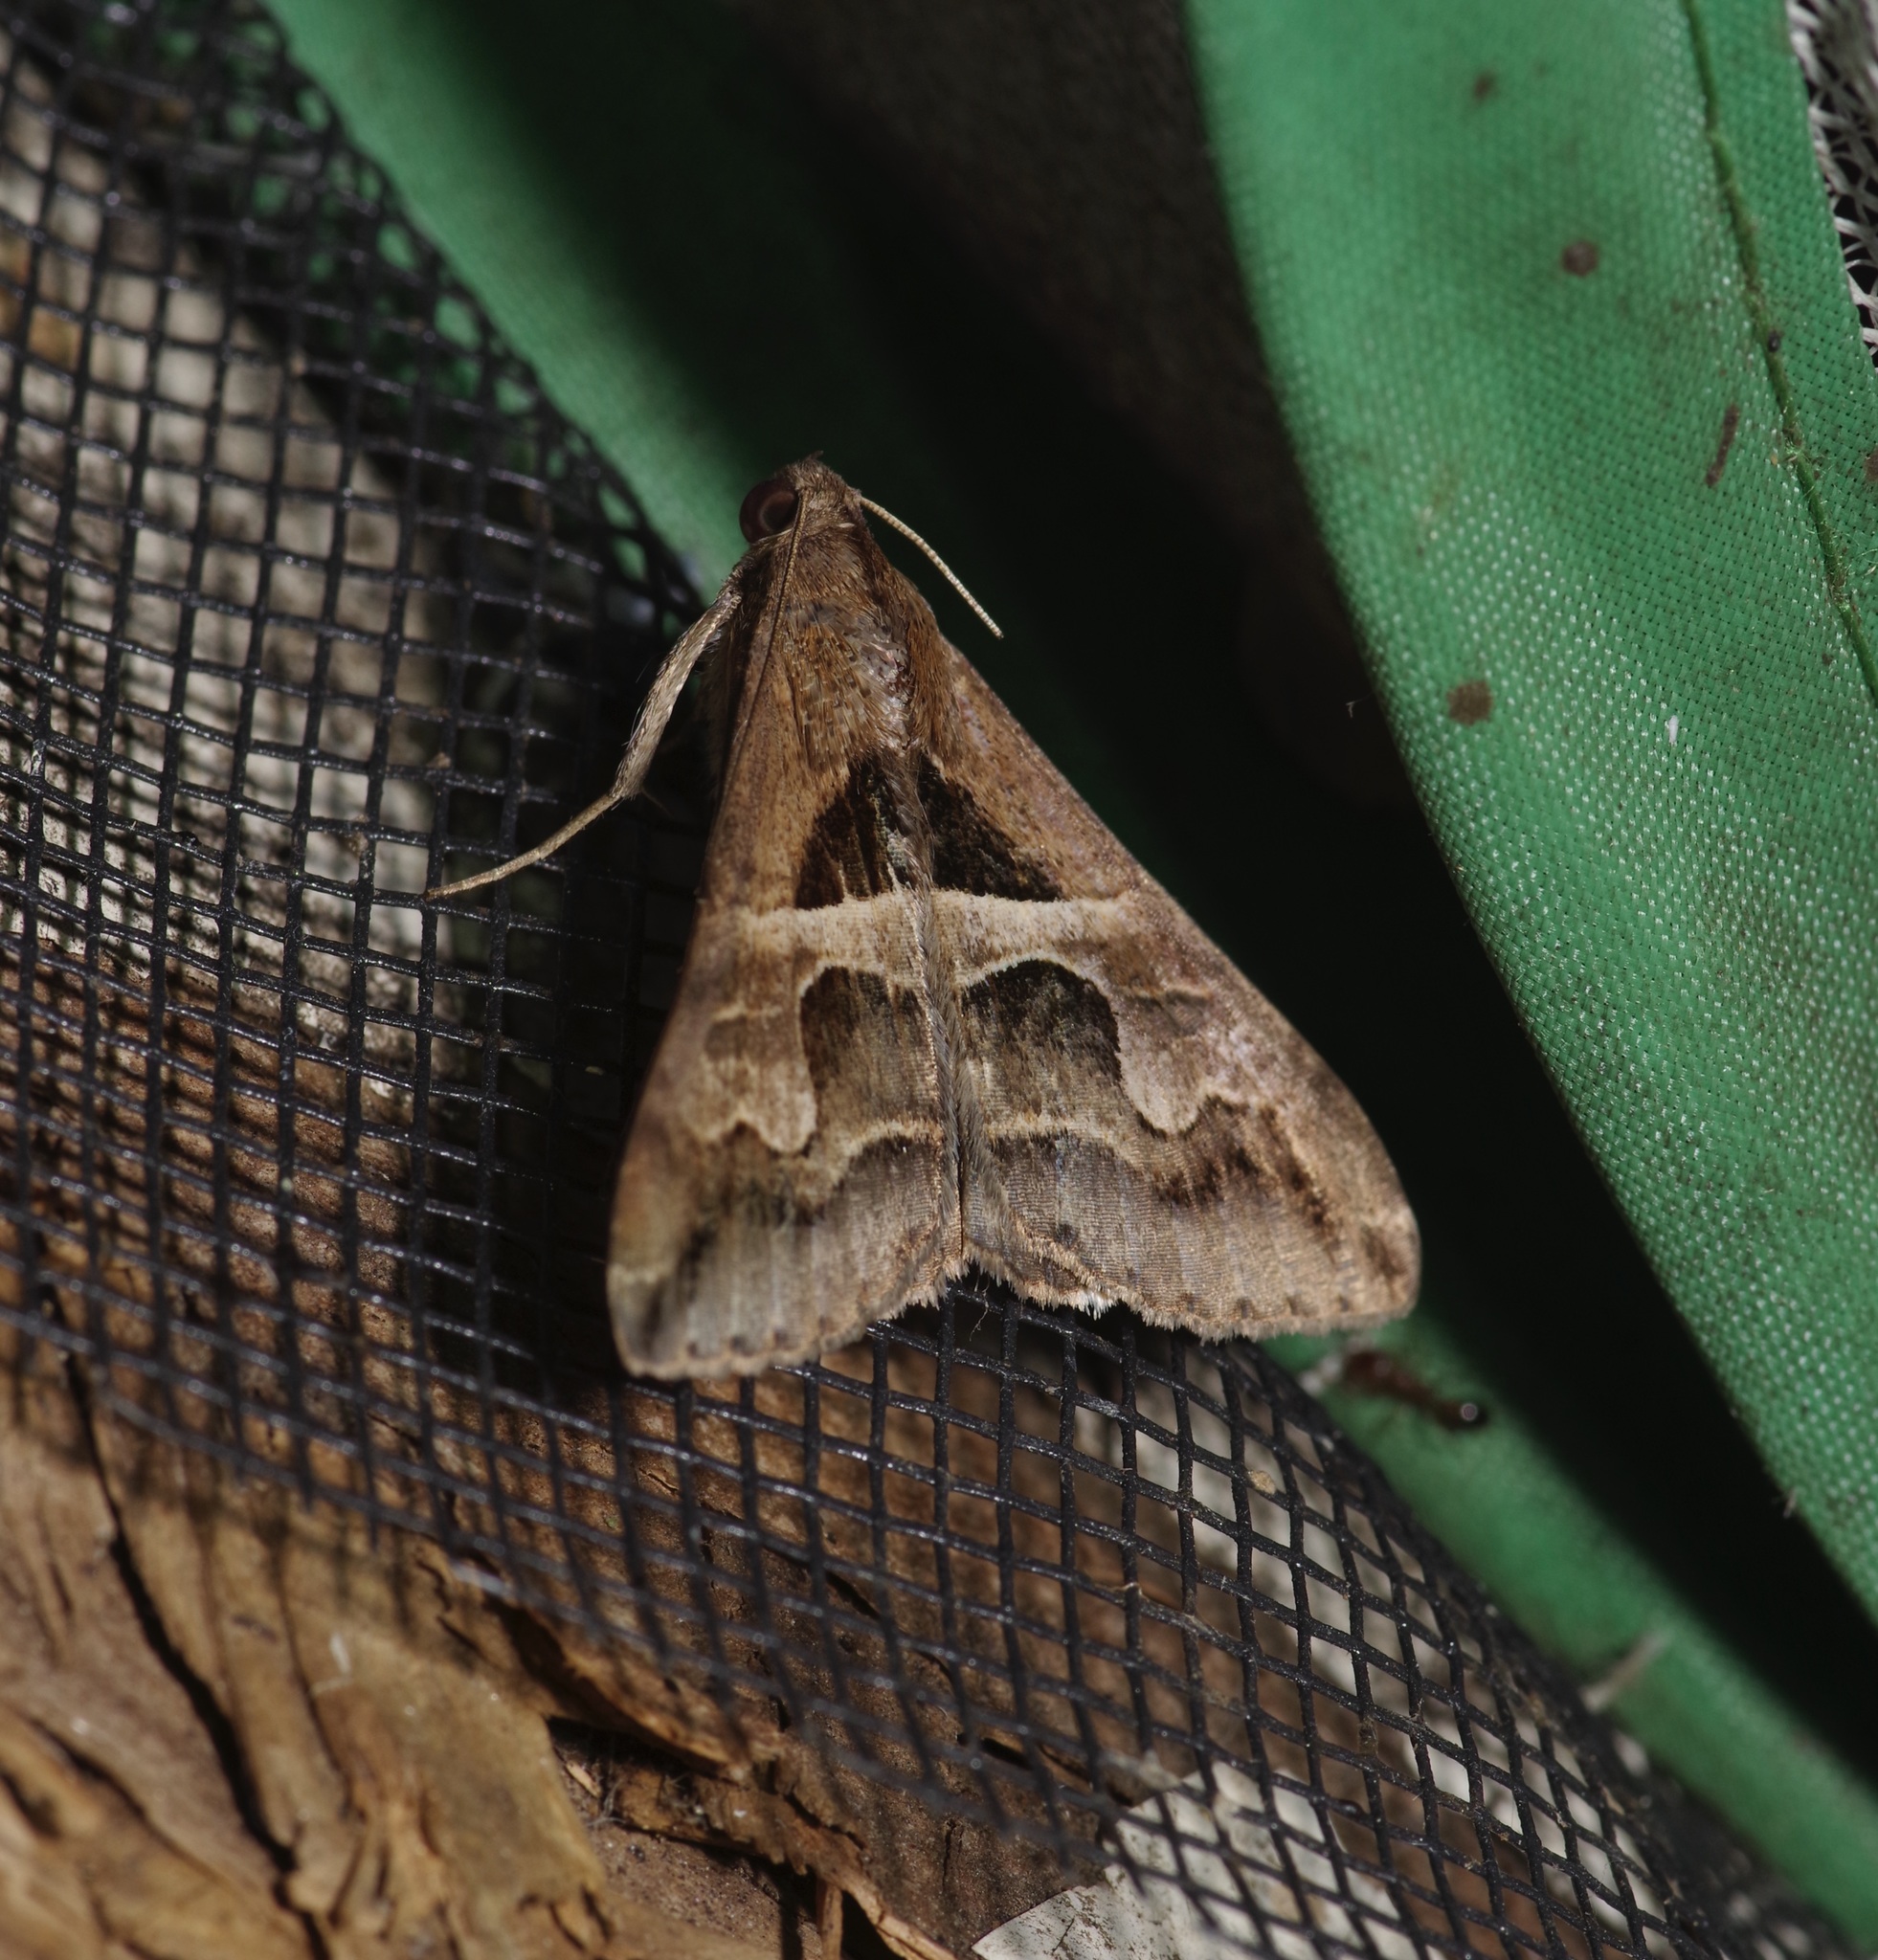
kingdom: Animalia
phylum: Arthropoda
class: Insecta
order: Lepidoptera
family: Erebidae
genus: Melipotis
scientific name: Melipotis cellaris
